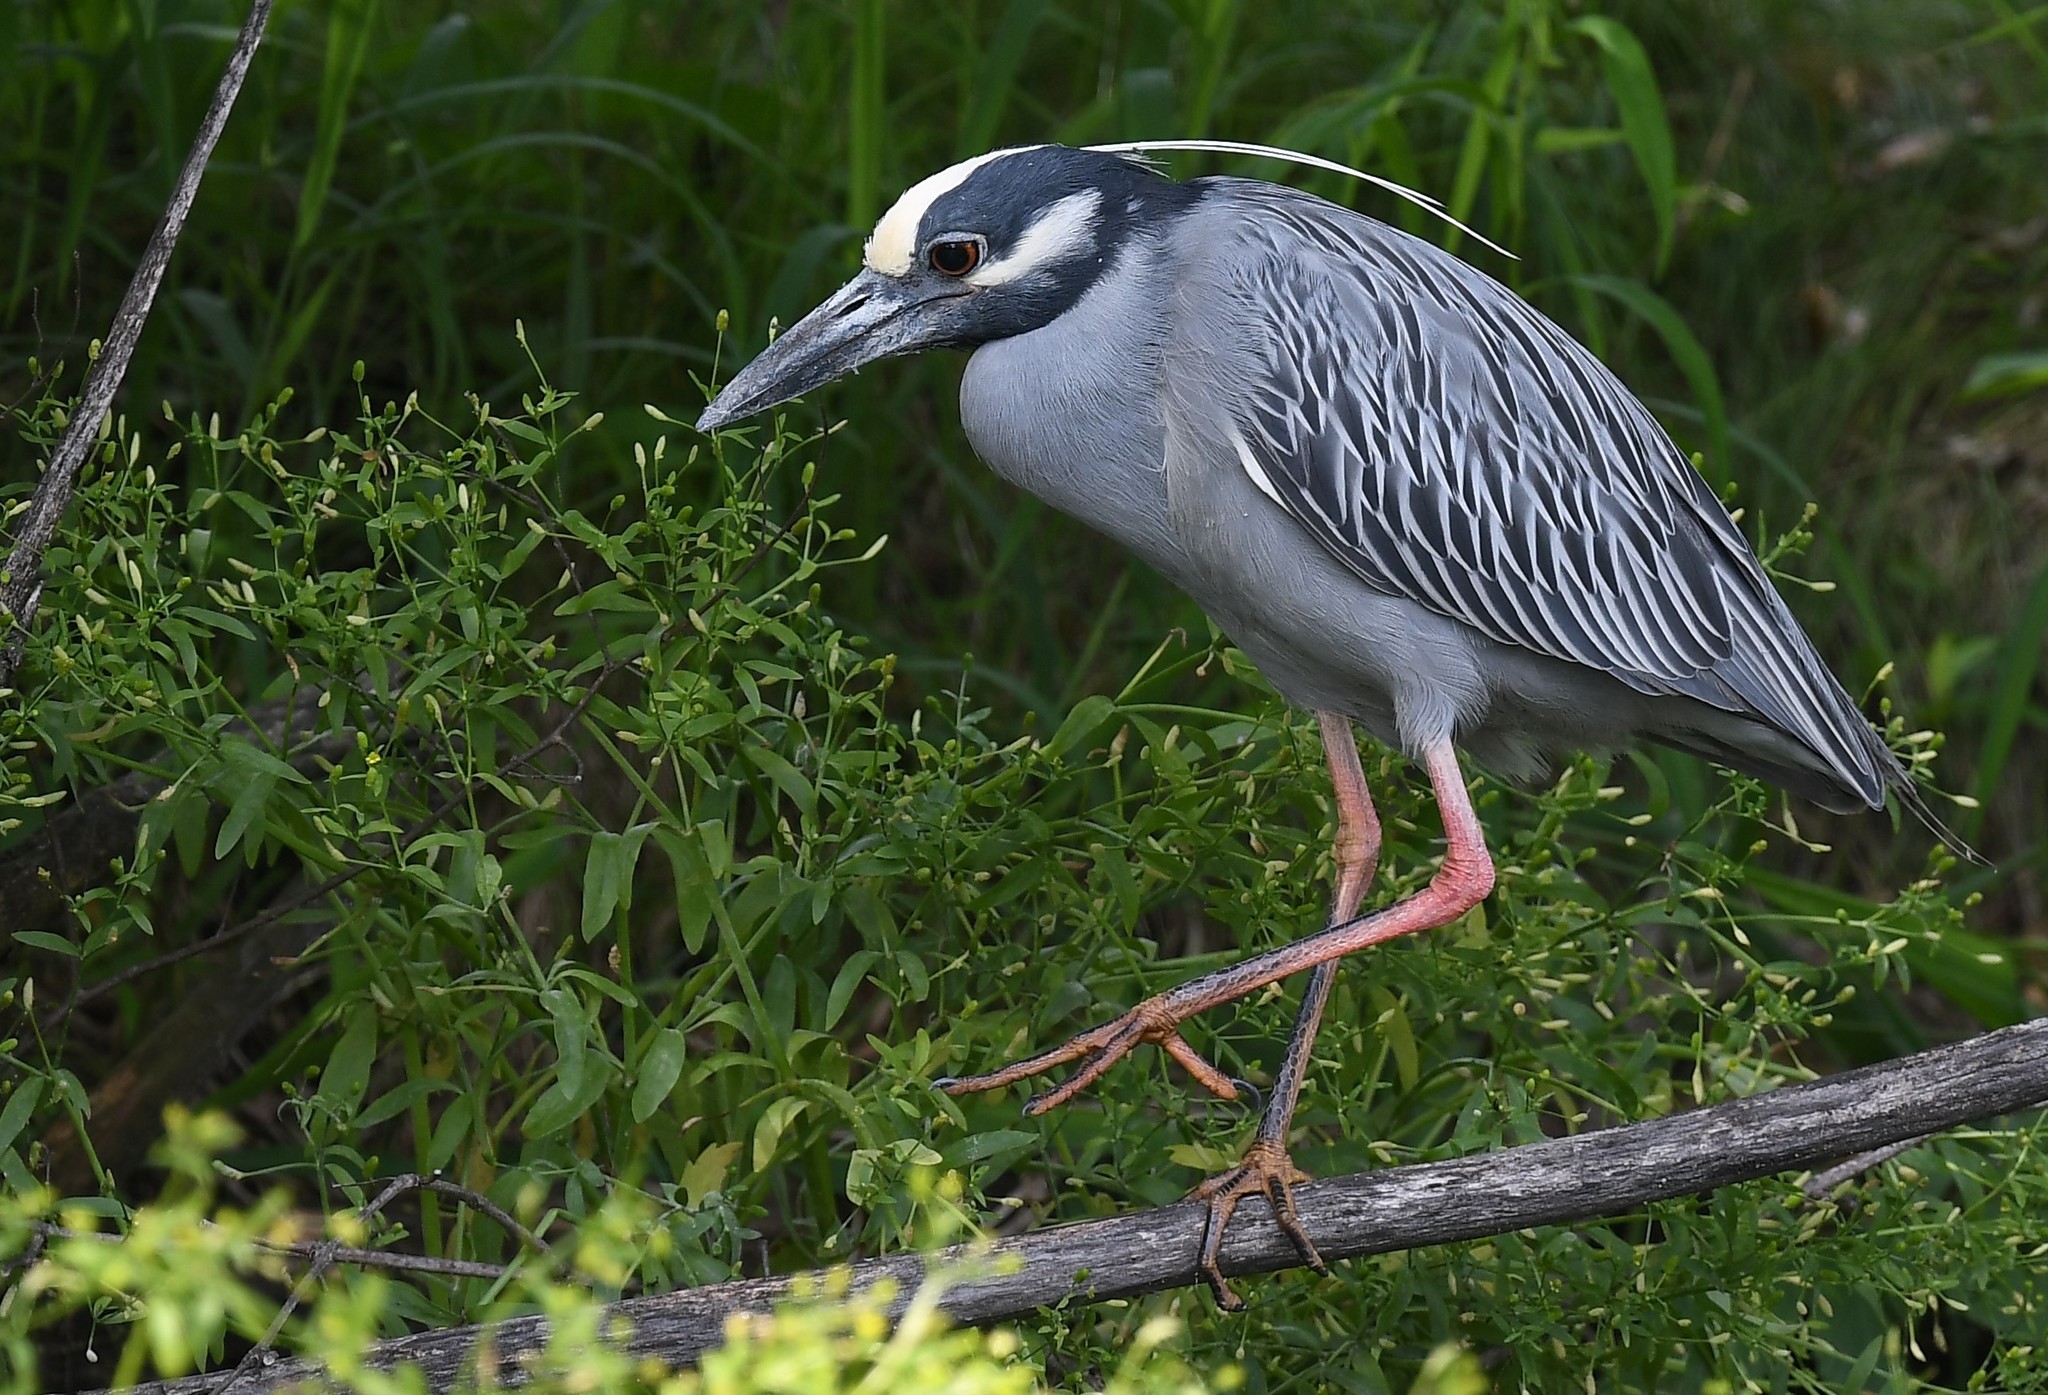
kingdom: Animalia
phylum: Chordata
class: Aves
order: Pelecaniformes
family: Ardeidae
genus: Nyctanassa
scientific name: Nyctanassa violacea
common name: Yellow-crowned night heron
